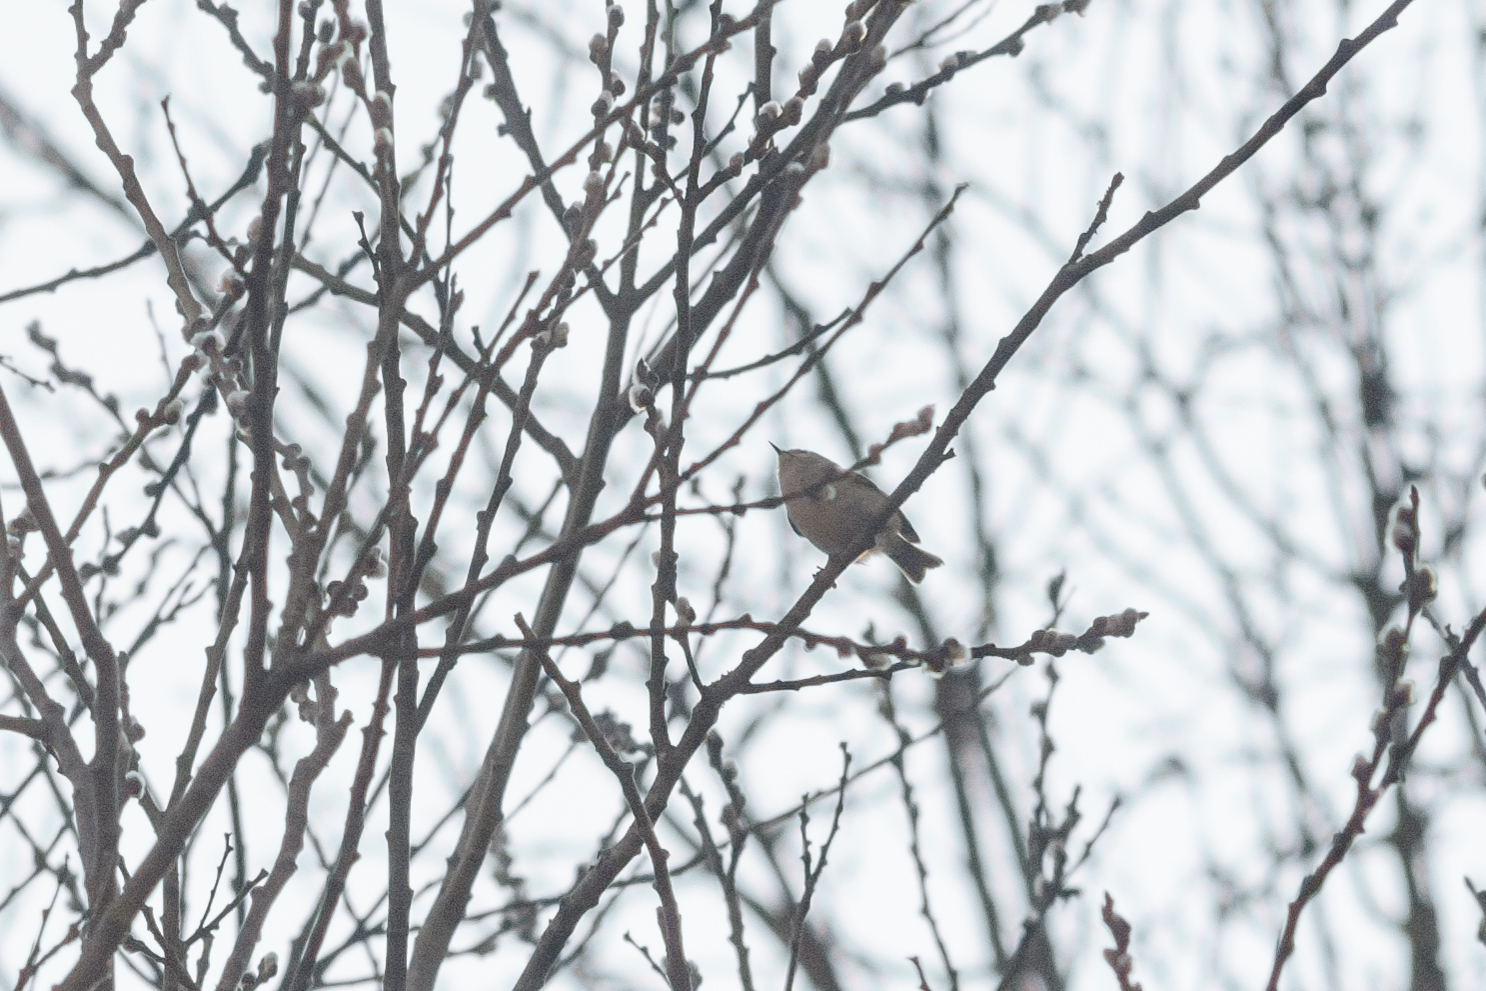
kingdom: Animalia
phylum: Chordata
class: Aves
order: Passeriformes
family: Regulidae
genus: Regulus
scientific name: Regulus regulus
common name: Goldcrest
